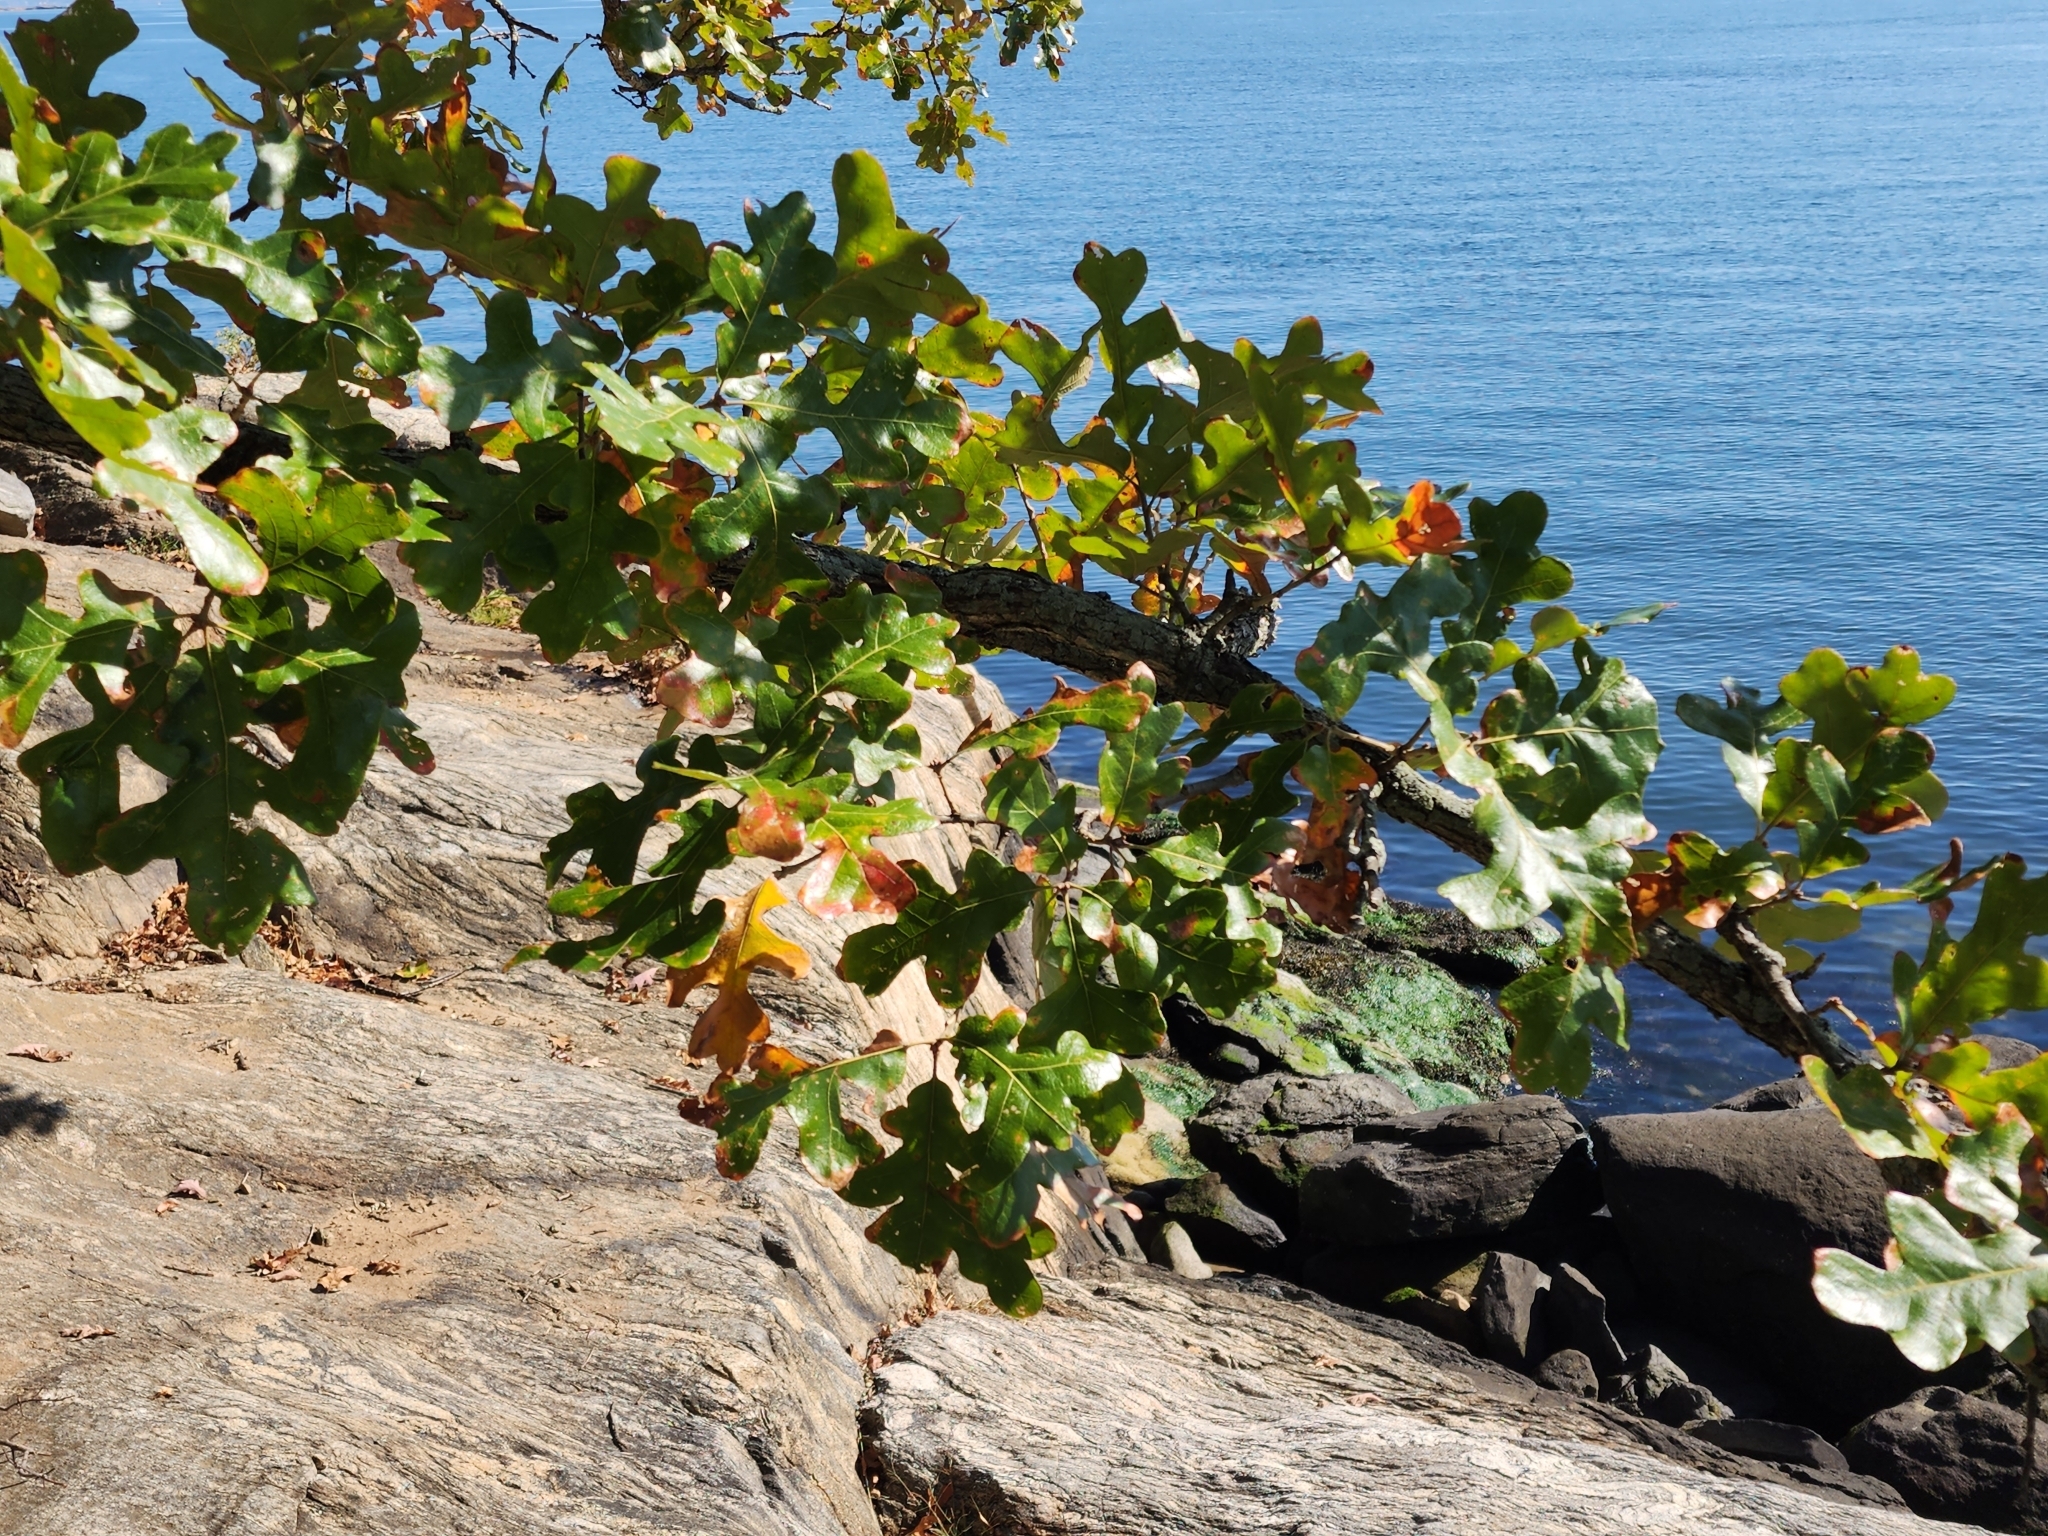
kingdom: Plantae
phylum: Tracheophyta
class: Magnoliopsida
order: Fagales
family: Fagaceae
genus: Quercus
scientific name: Quercus stellata
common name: Post oak
